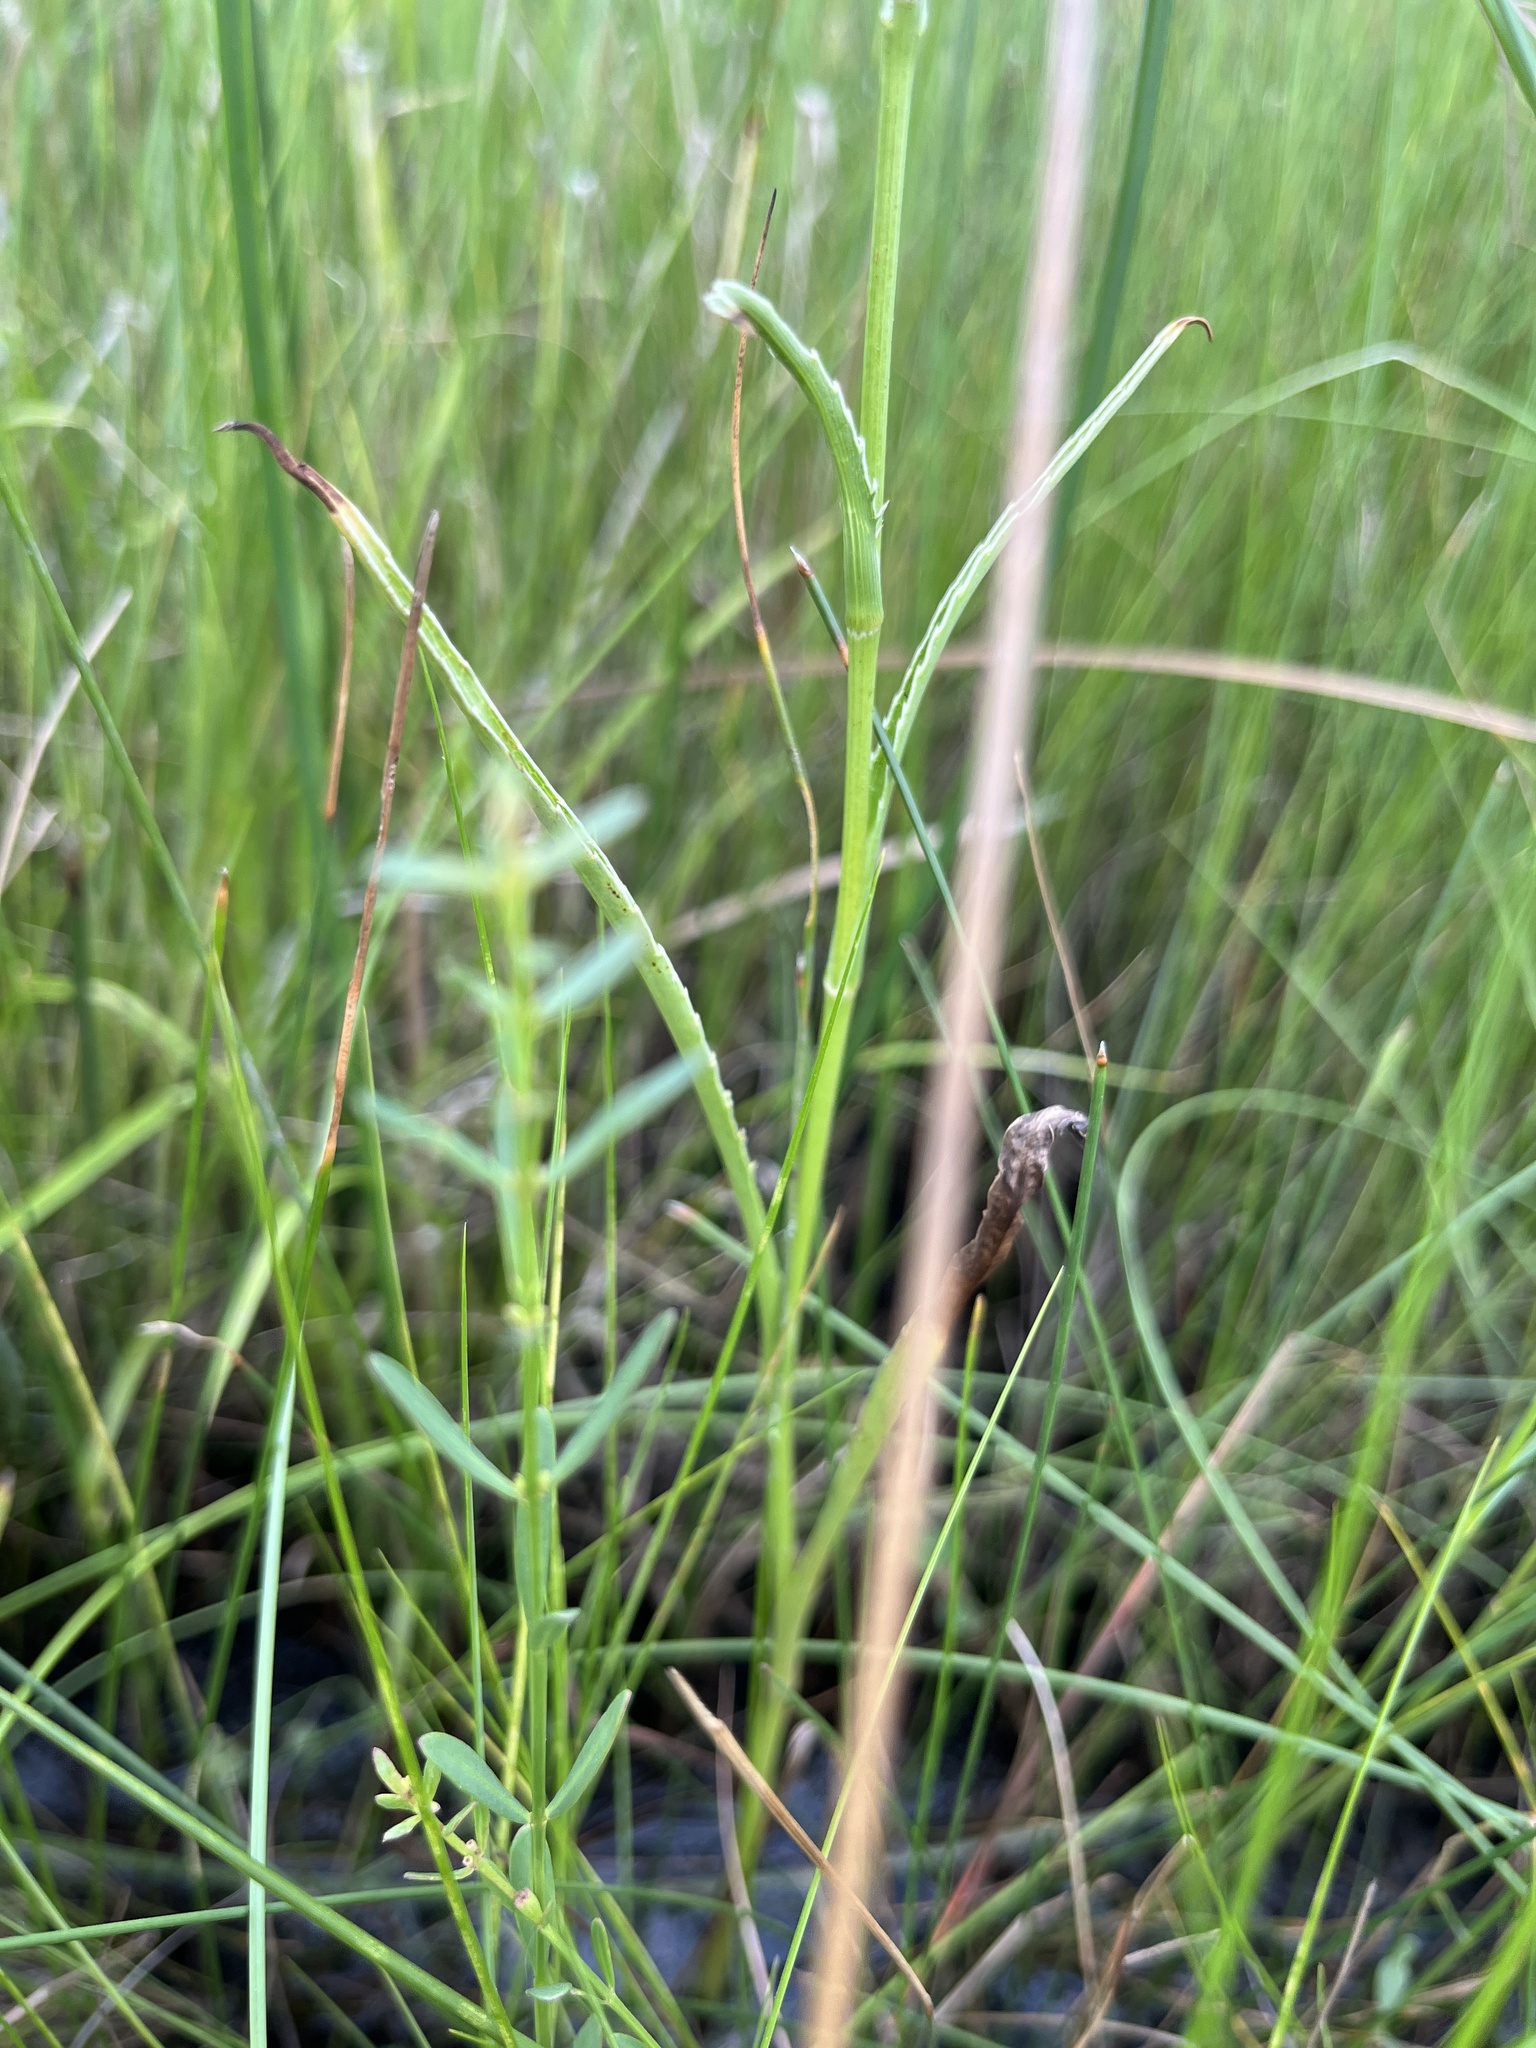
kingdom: Plantae
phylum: Tracheophyta
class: Magnoliopsida
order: Apiales
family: Apiaceae
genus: Eryngium
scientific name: Eryngium aquaticum
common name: Water eryngo
